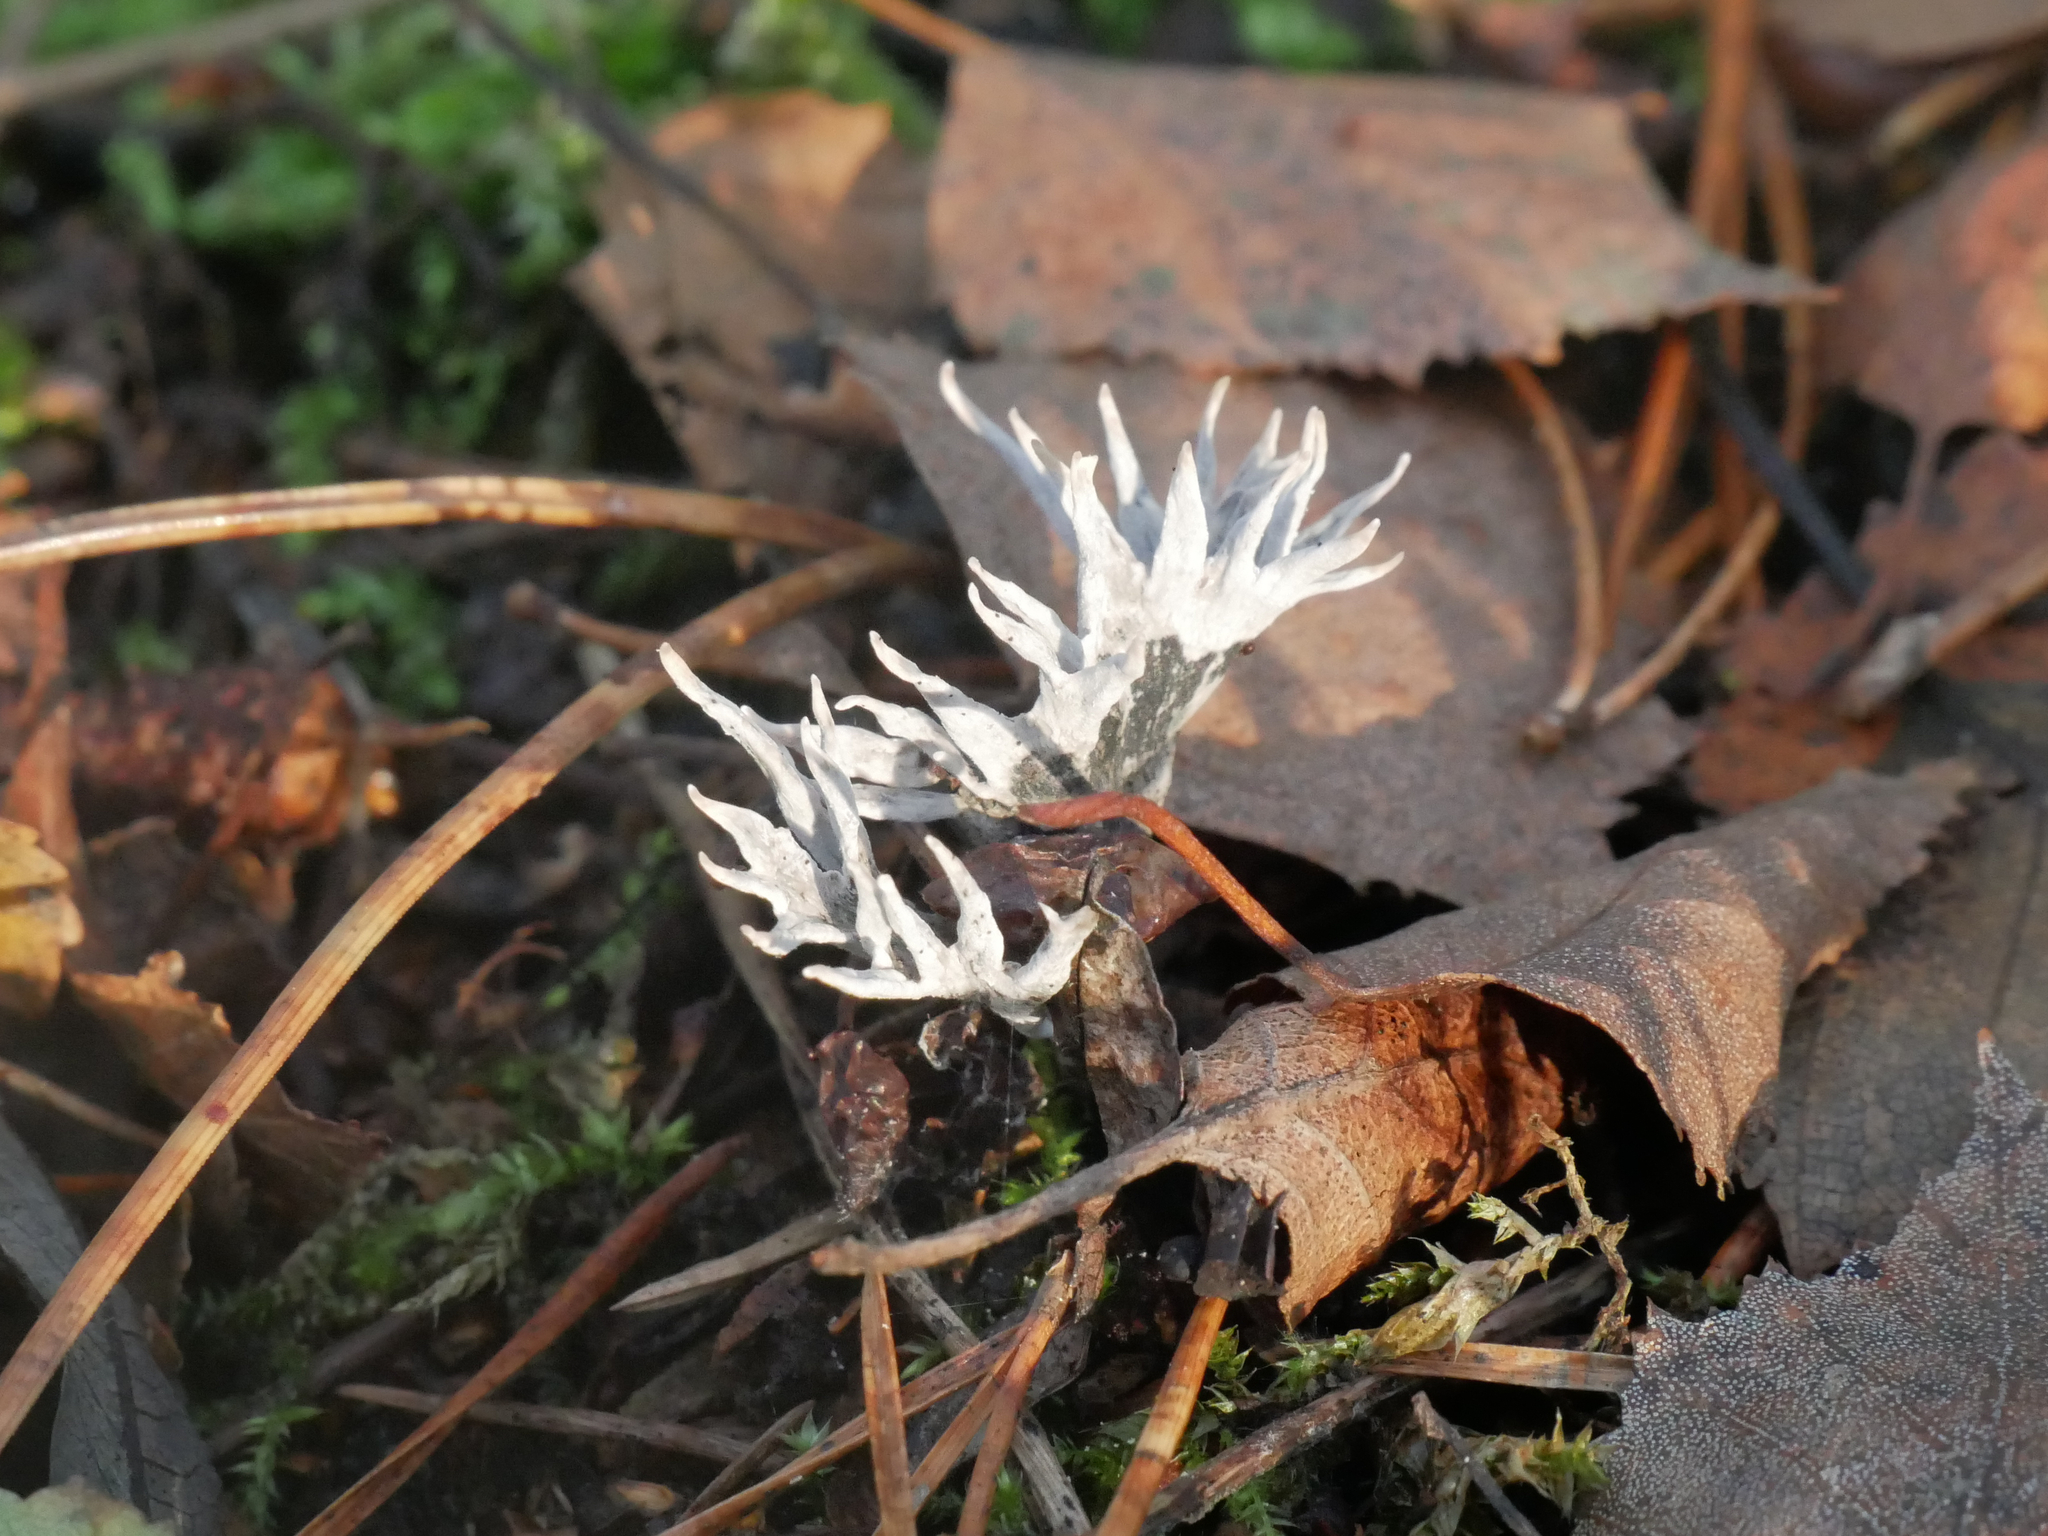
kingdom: Fungi
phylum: Ascomycota
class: Sordariomycetes
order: Xylariales
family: Xylariaceae
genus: Xylaria
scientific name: Xylaria hypoxylon
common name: Candle-snuff fungus
